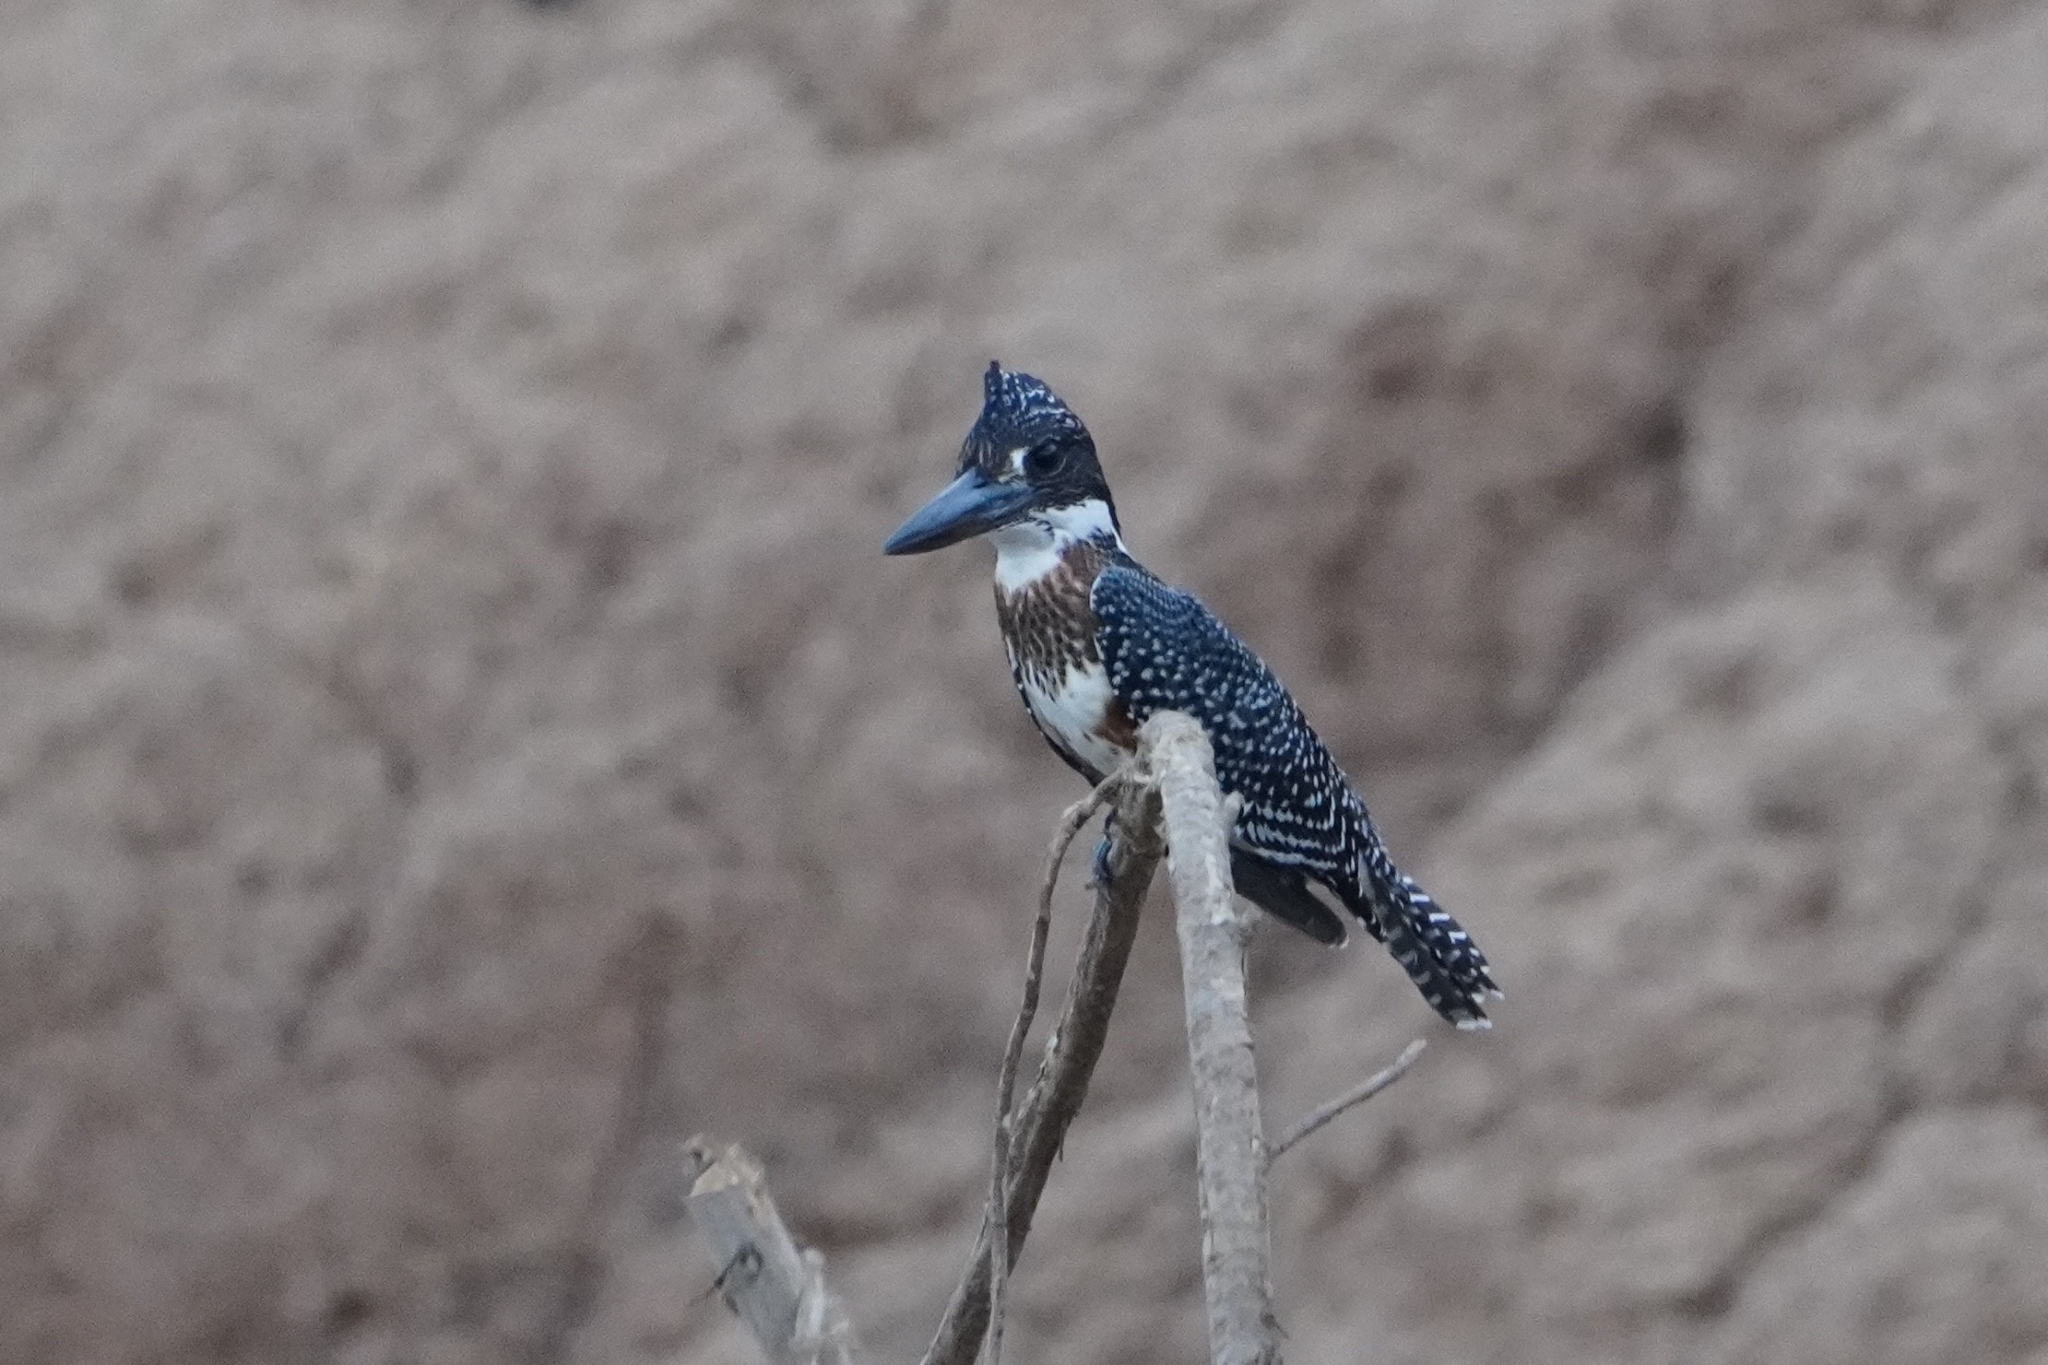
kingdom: Animalia
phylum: Chordata
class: Aves
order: Coraciiformes
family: Alcedinidae
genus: Megaceryle
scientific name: Megaceryle maxima
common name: Giant kingfisher
